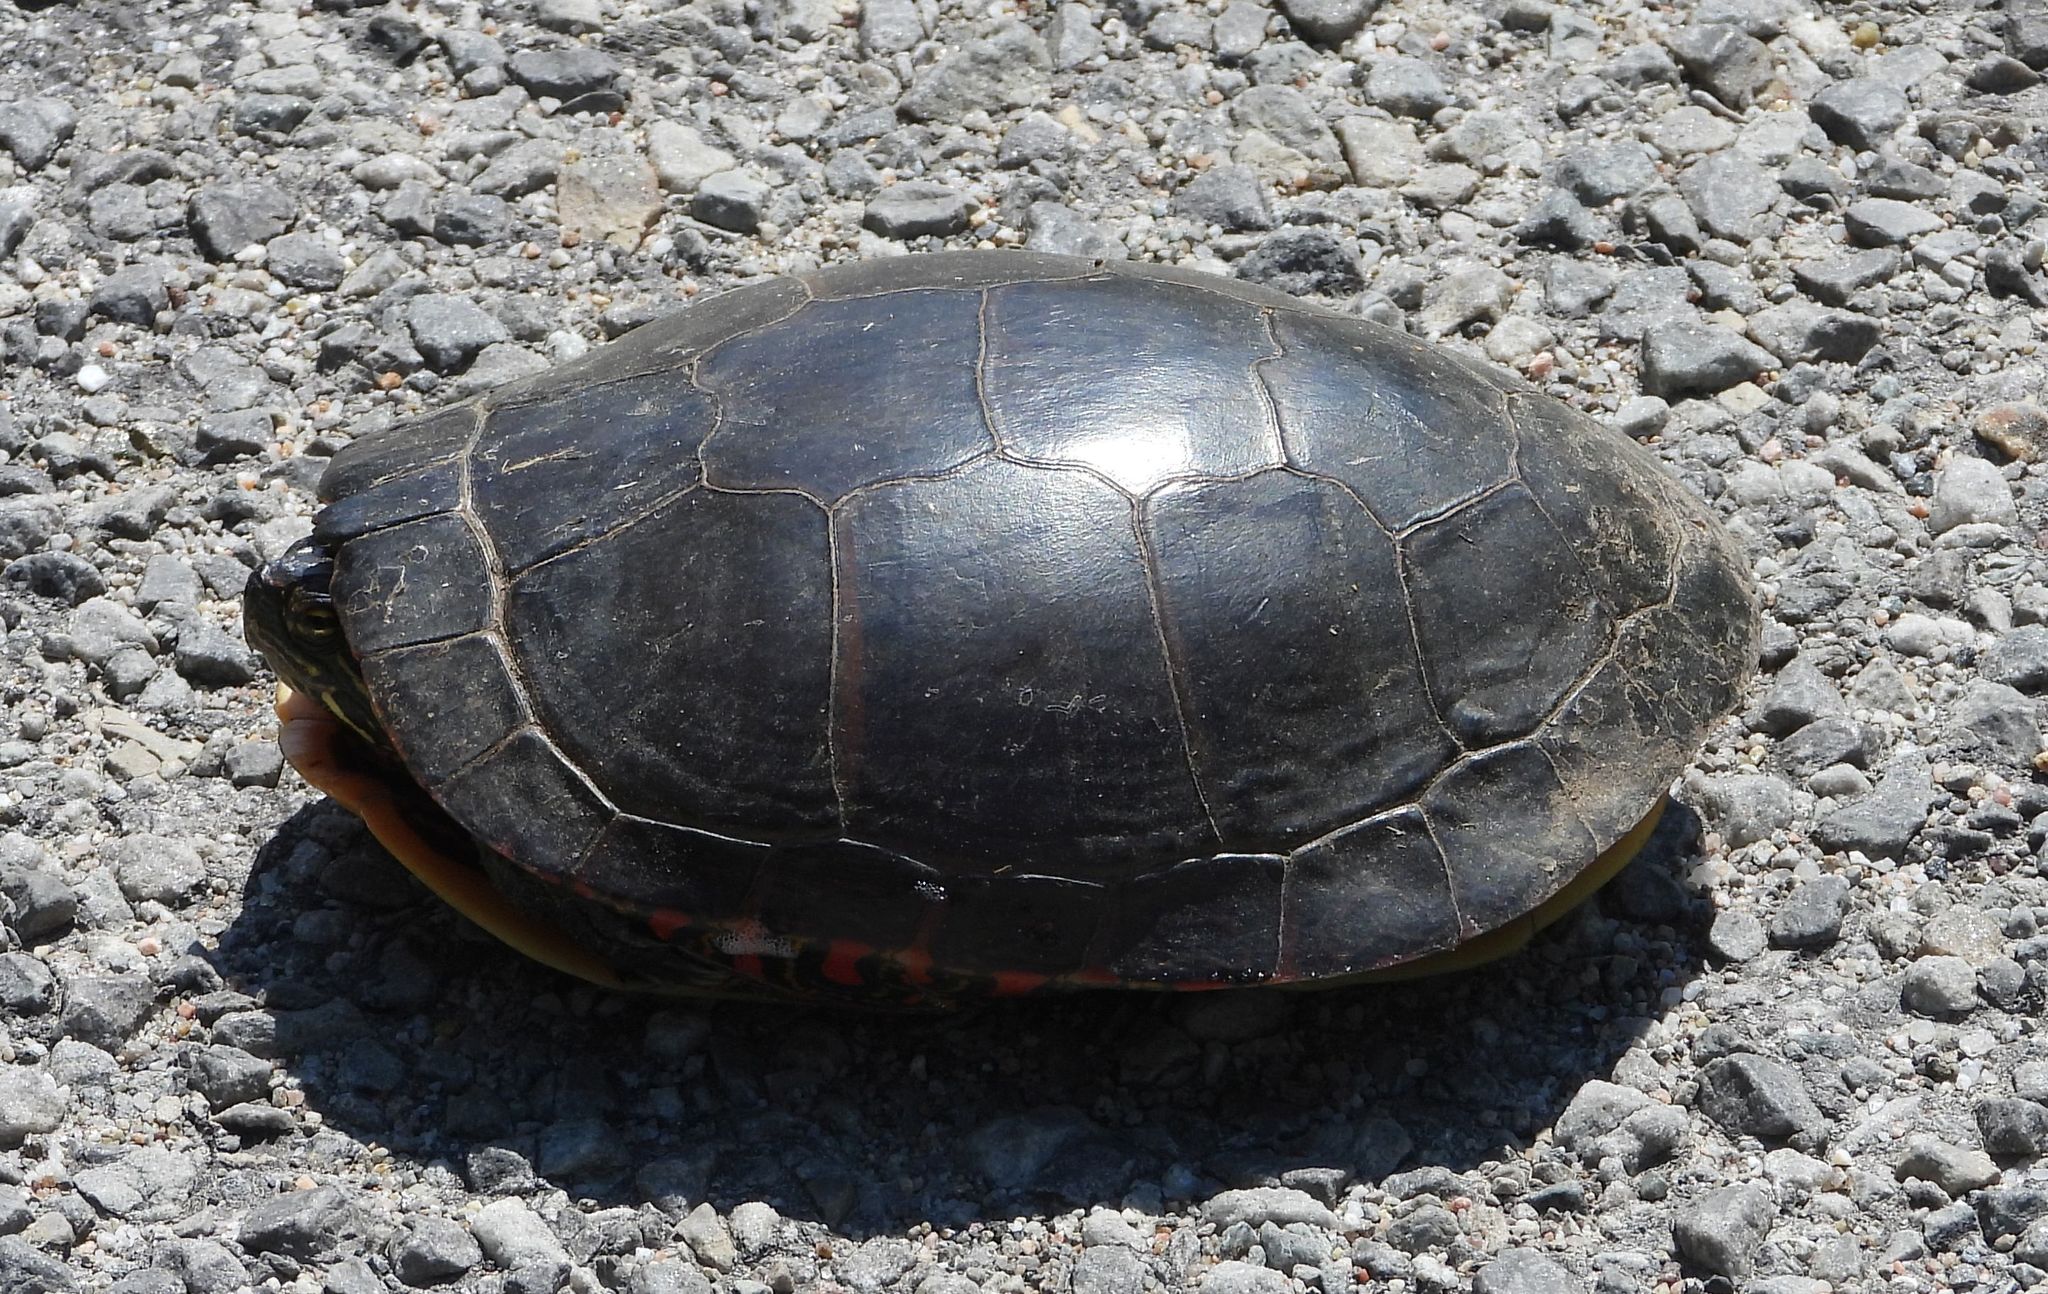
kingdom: Animalia
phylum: Chordata
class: Testudines
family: Emydidae
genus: Chrysemys
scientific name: Chrysemys picta
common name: Painted turtle
